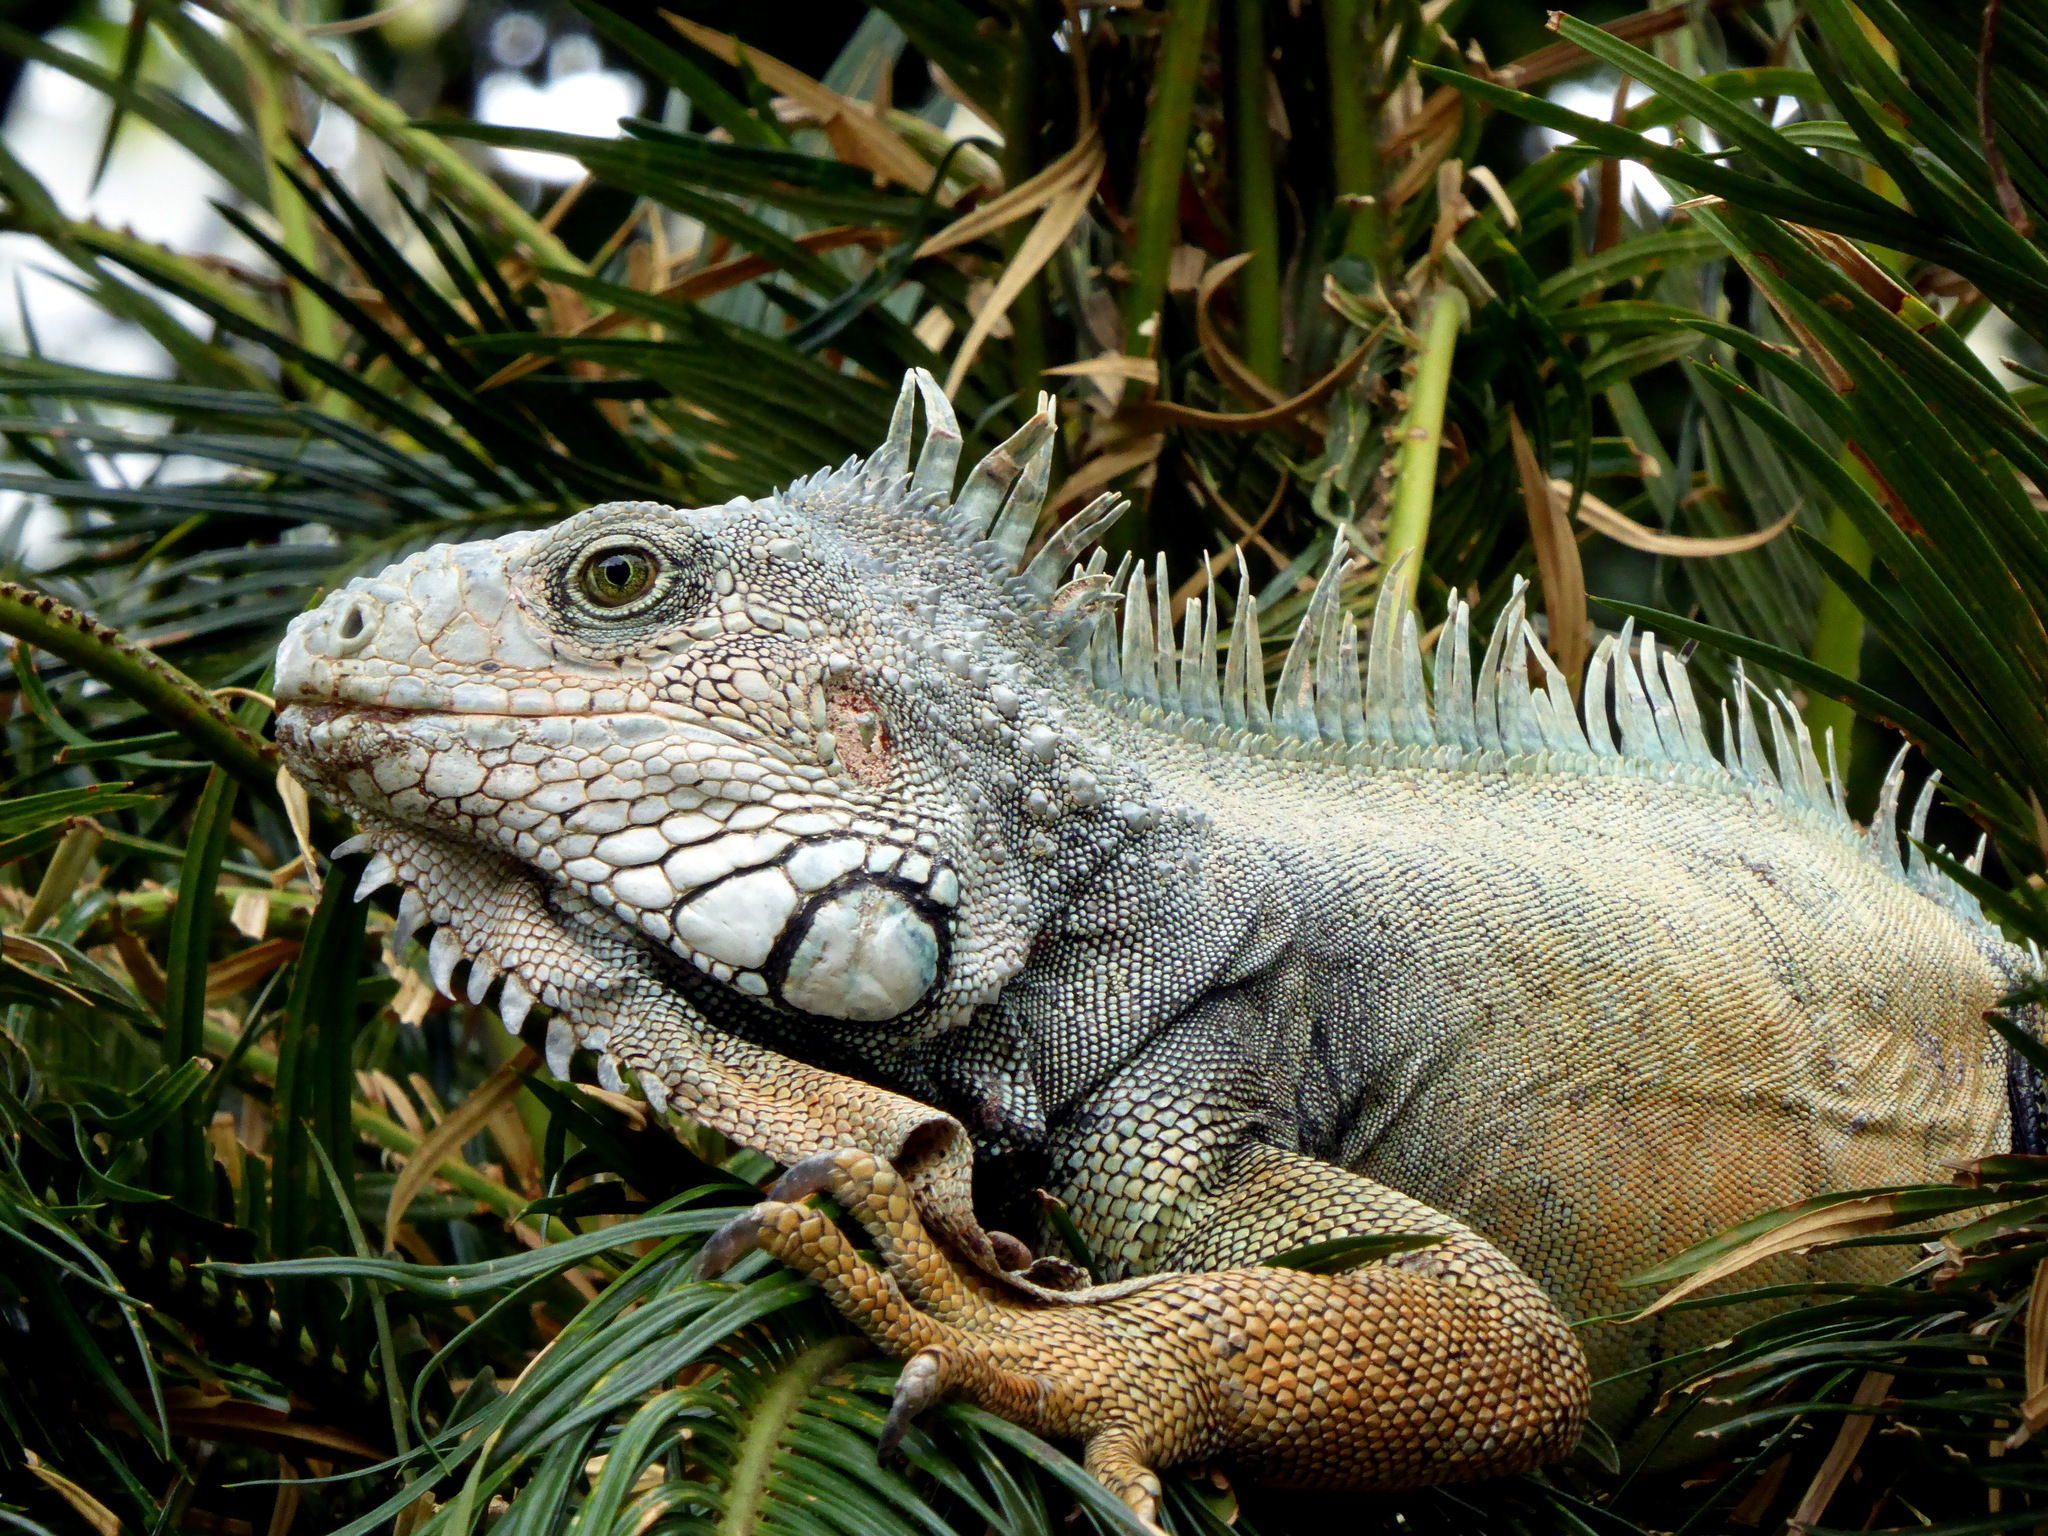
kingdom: Animalia
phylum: Chordata
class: Squamata
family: Iguanidae
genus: Iguana
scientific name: Iguana iguana
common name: Green iguana
